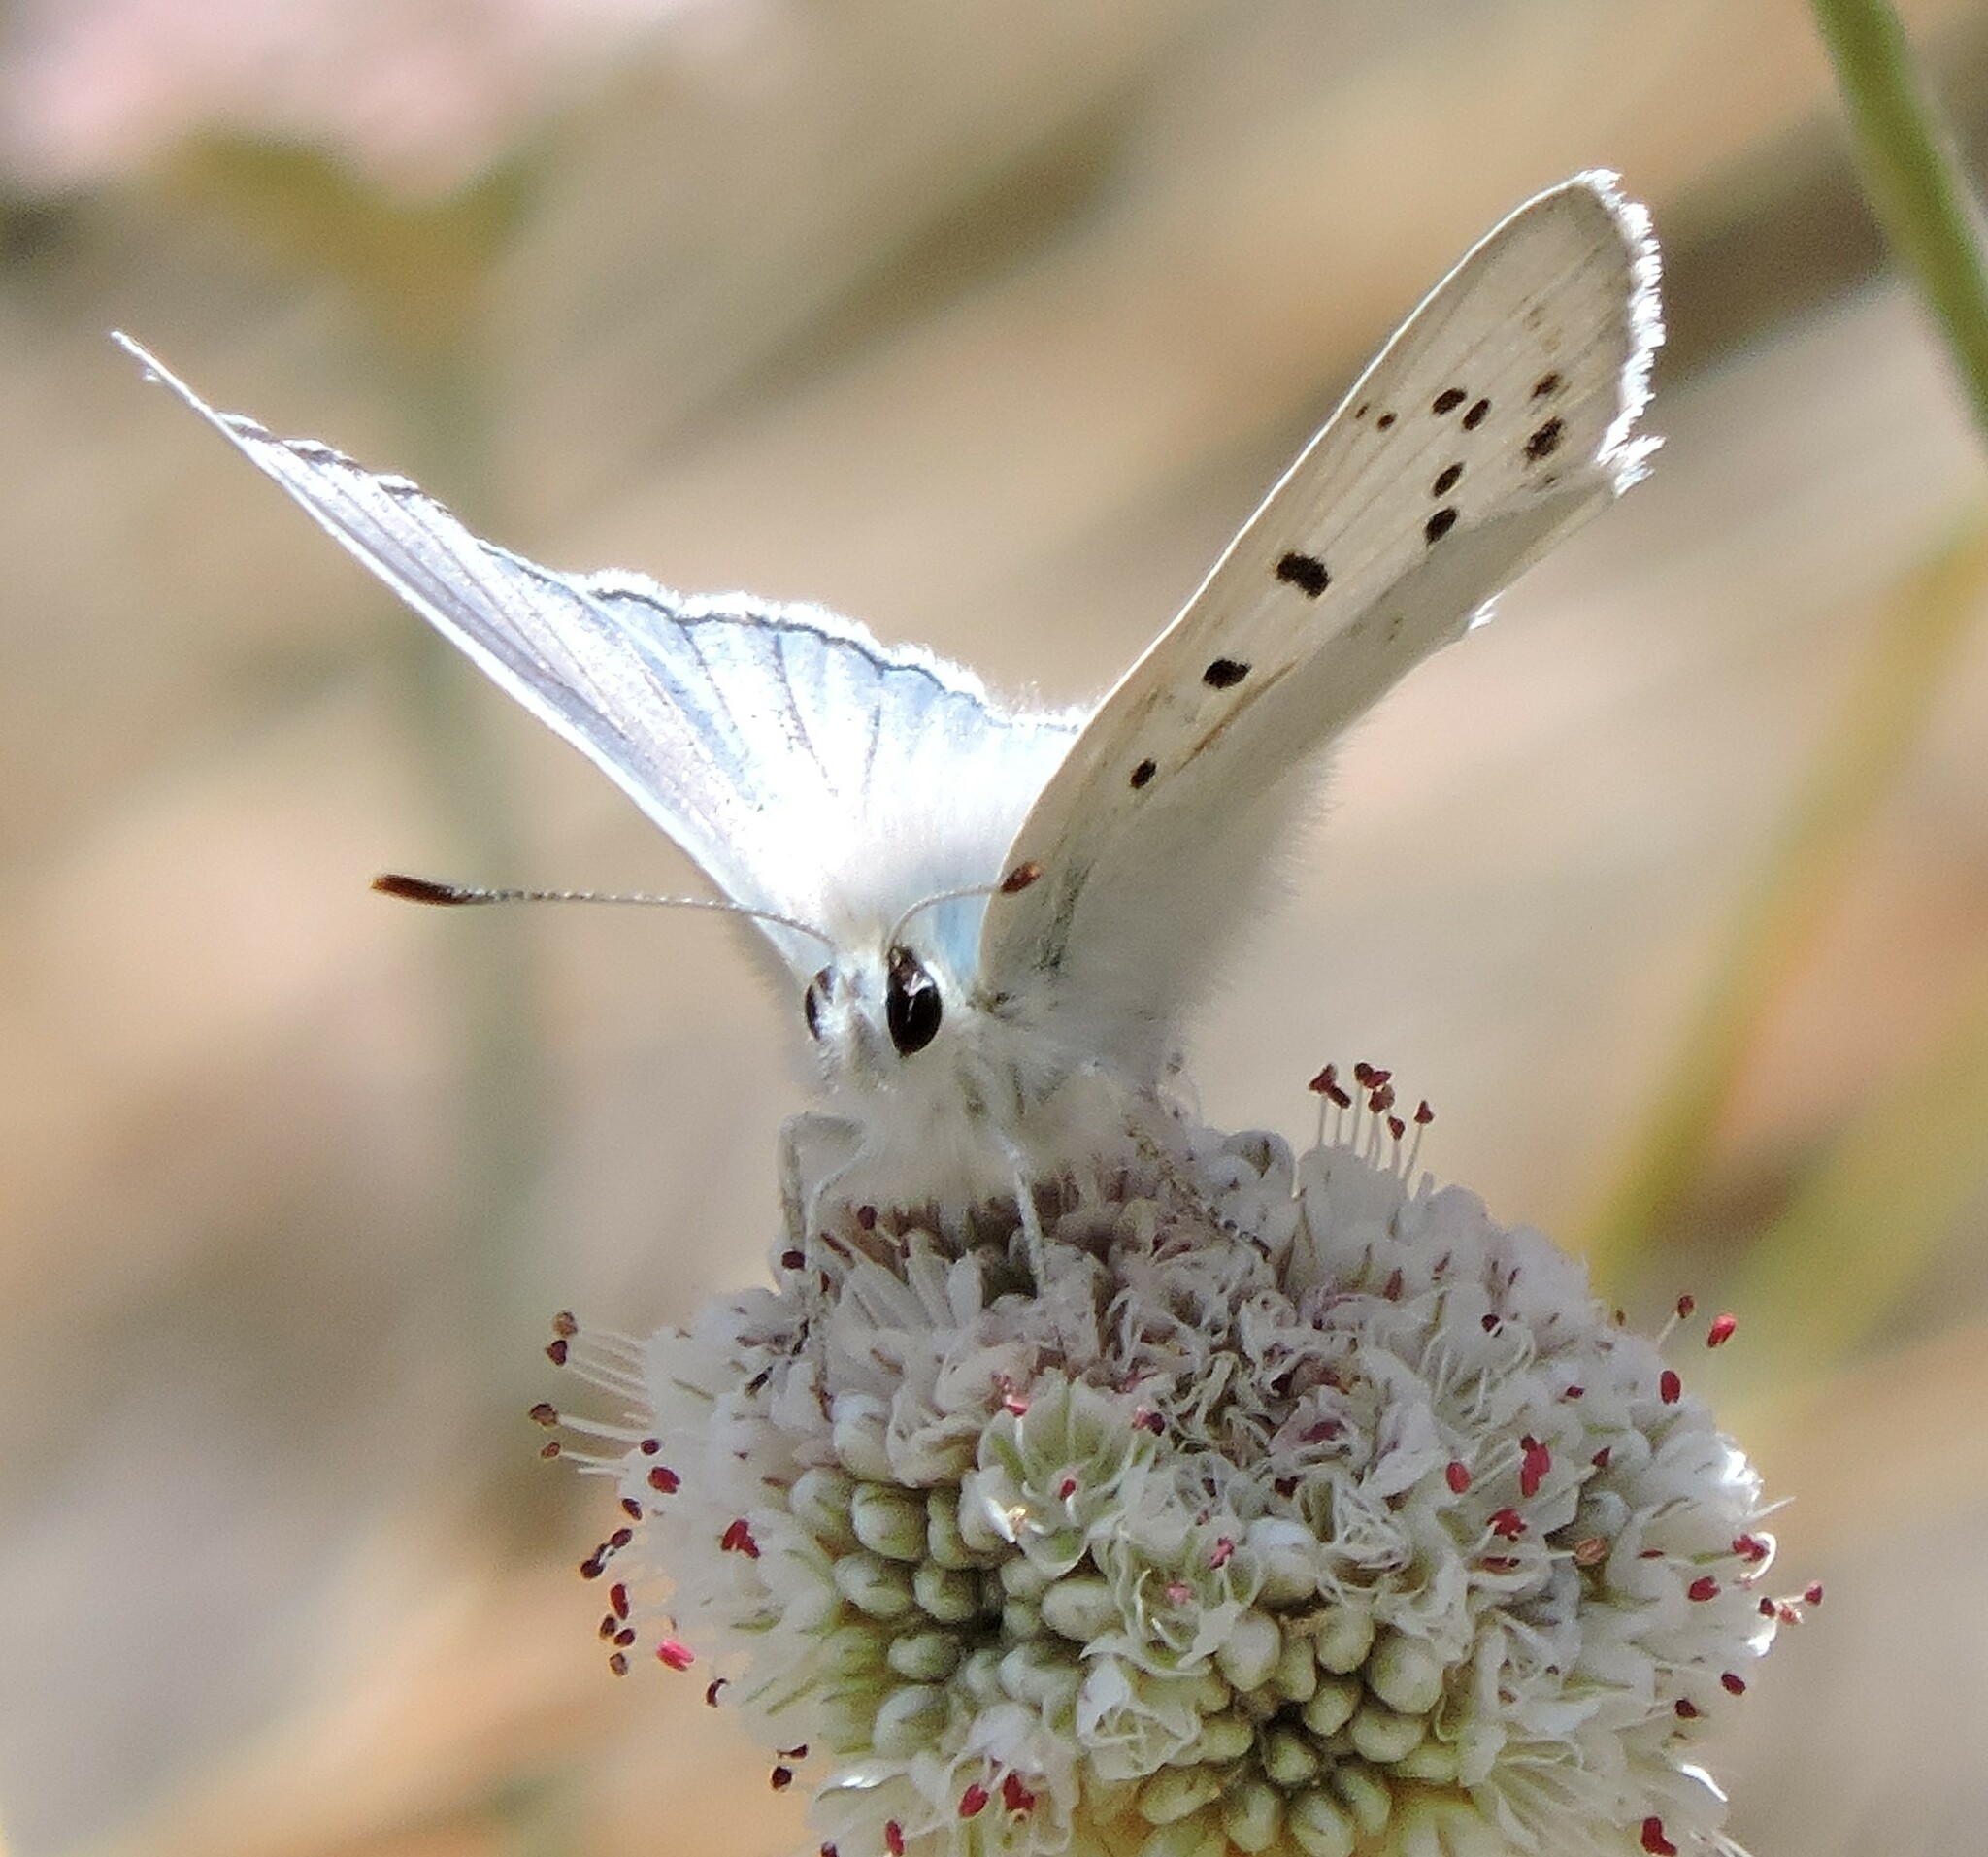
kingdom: Animalia
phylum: Arthropoda
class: Insecta
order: Lepidoptera
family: Lycaenidae
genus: Tharsalea
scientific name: Tharsalea heteronea
